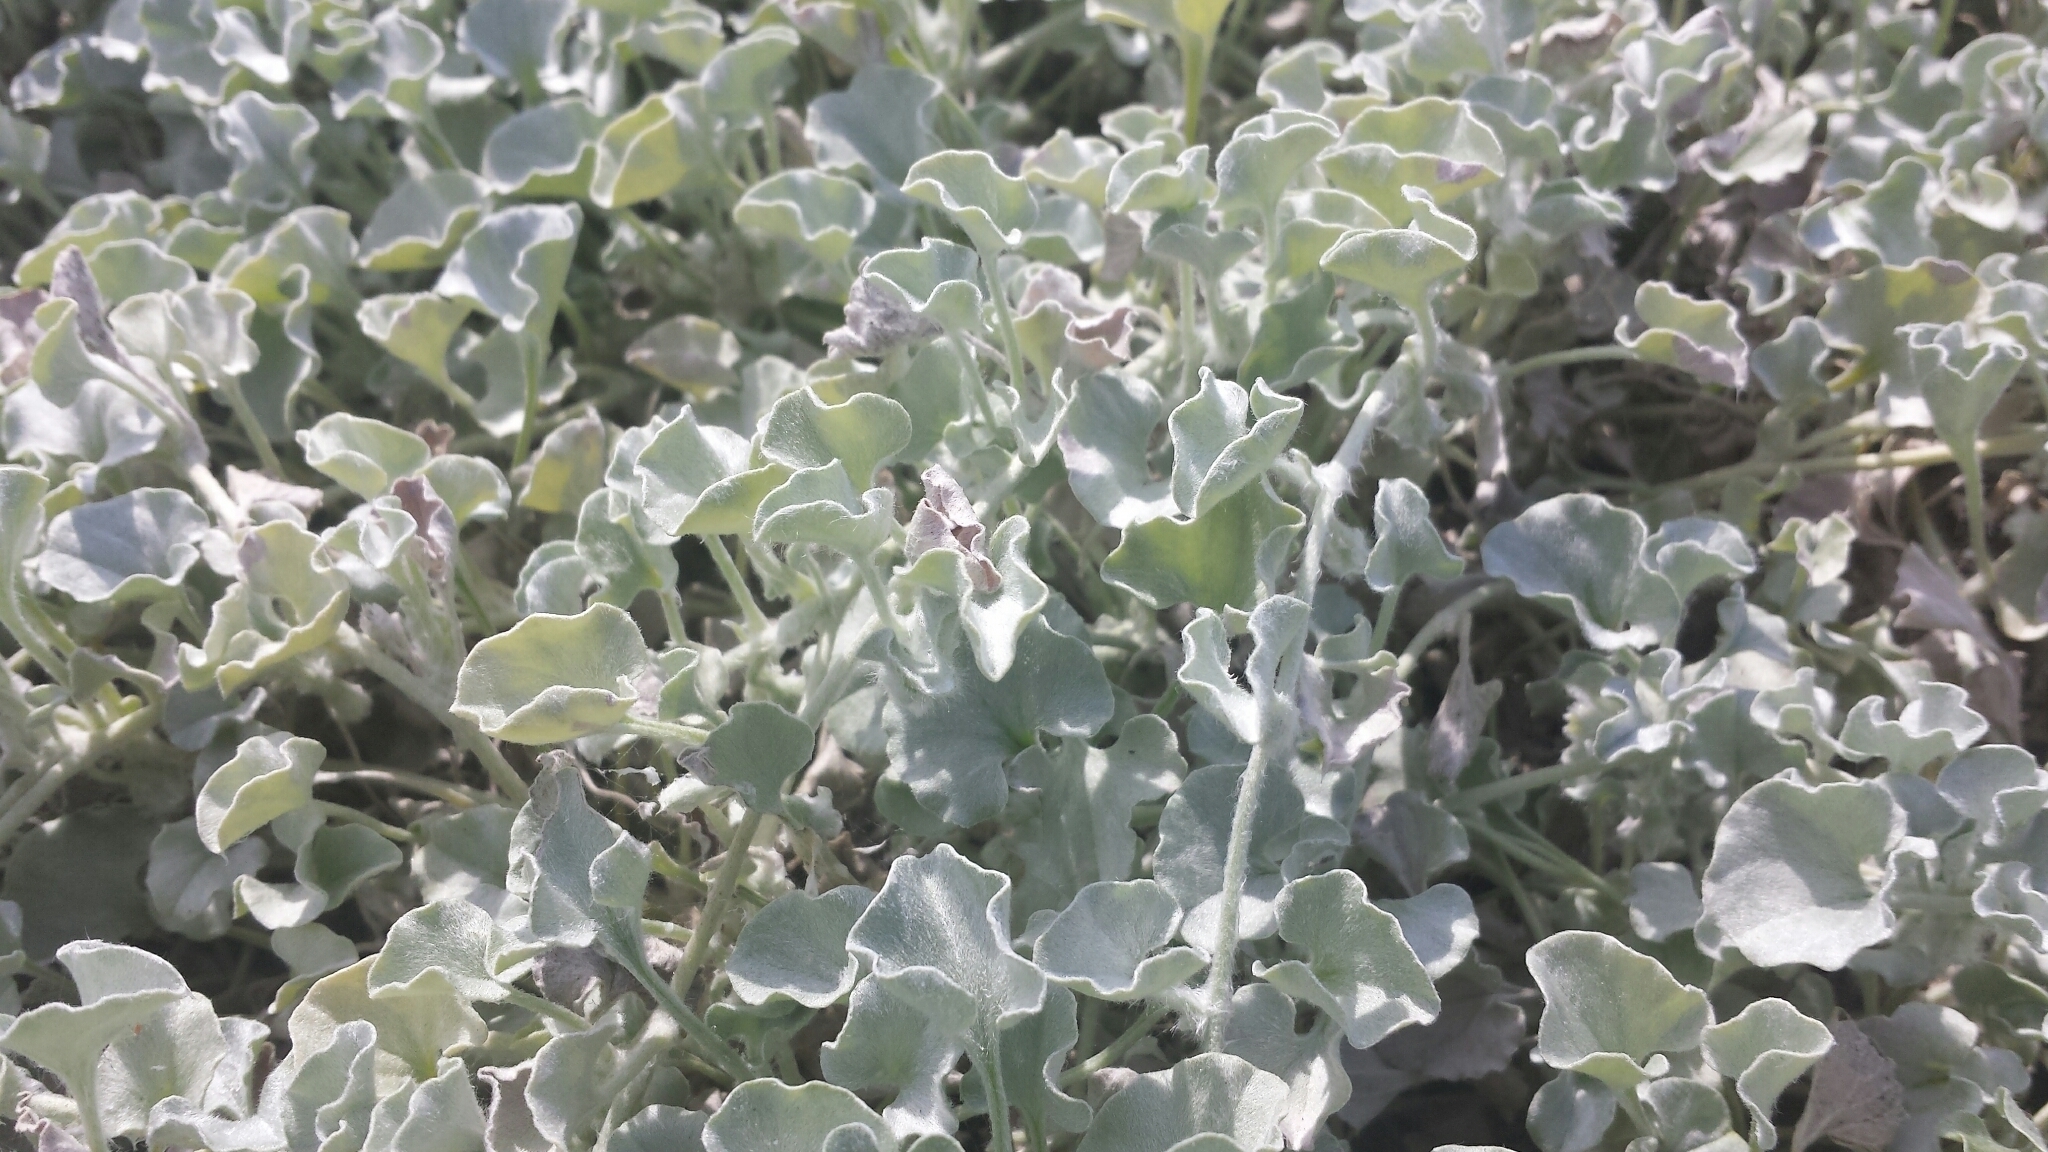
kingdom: Plantae
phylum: Tracheophyta
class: Magnoliopsida
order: Solanales
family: Convolvulaceae
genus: Dichondra
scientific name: Dichondra argentea
